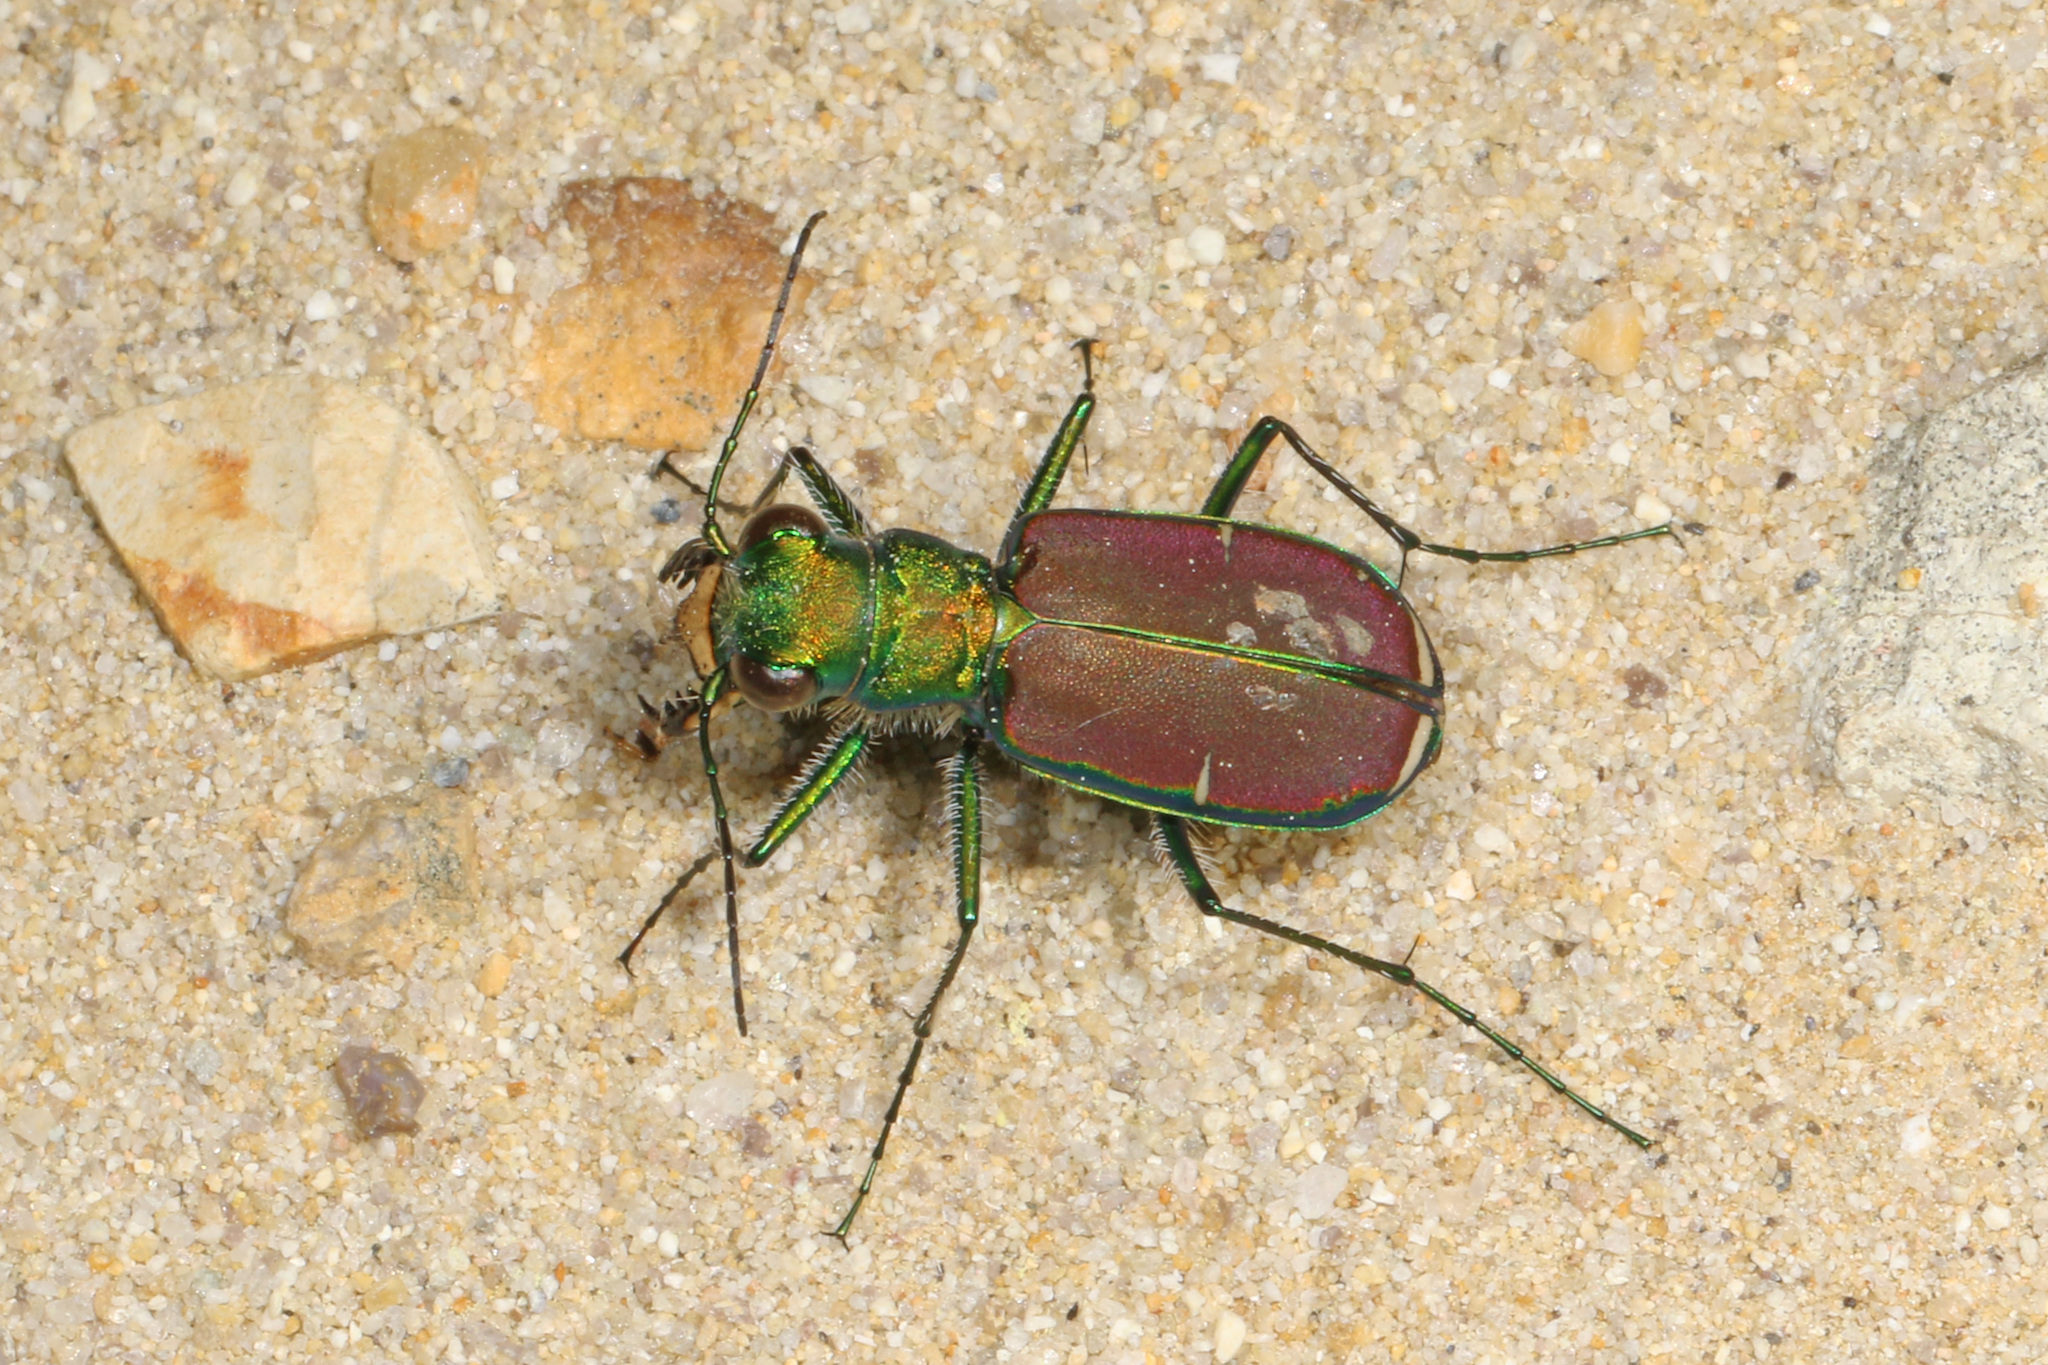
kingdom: Animalia
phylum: Arthropoda
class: Insecta
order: Coleoptera
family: Carabidae
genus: Cicindela
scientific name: Cicindela splendida
